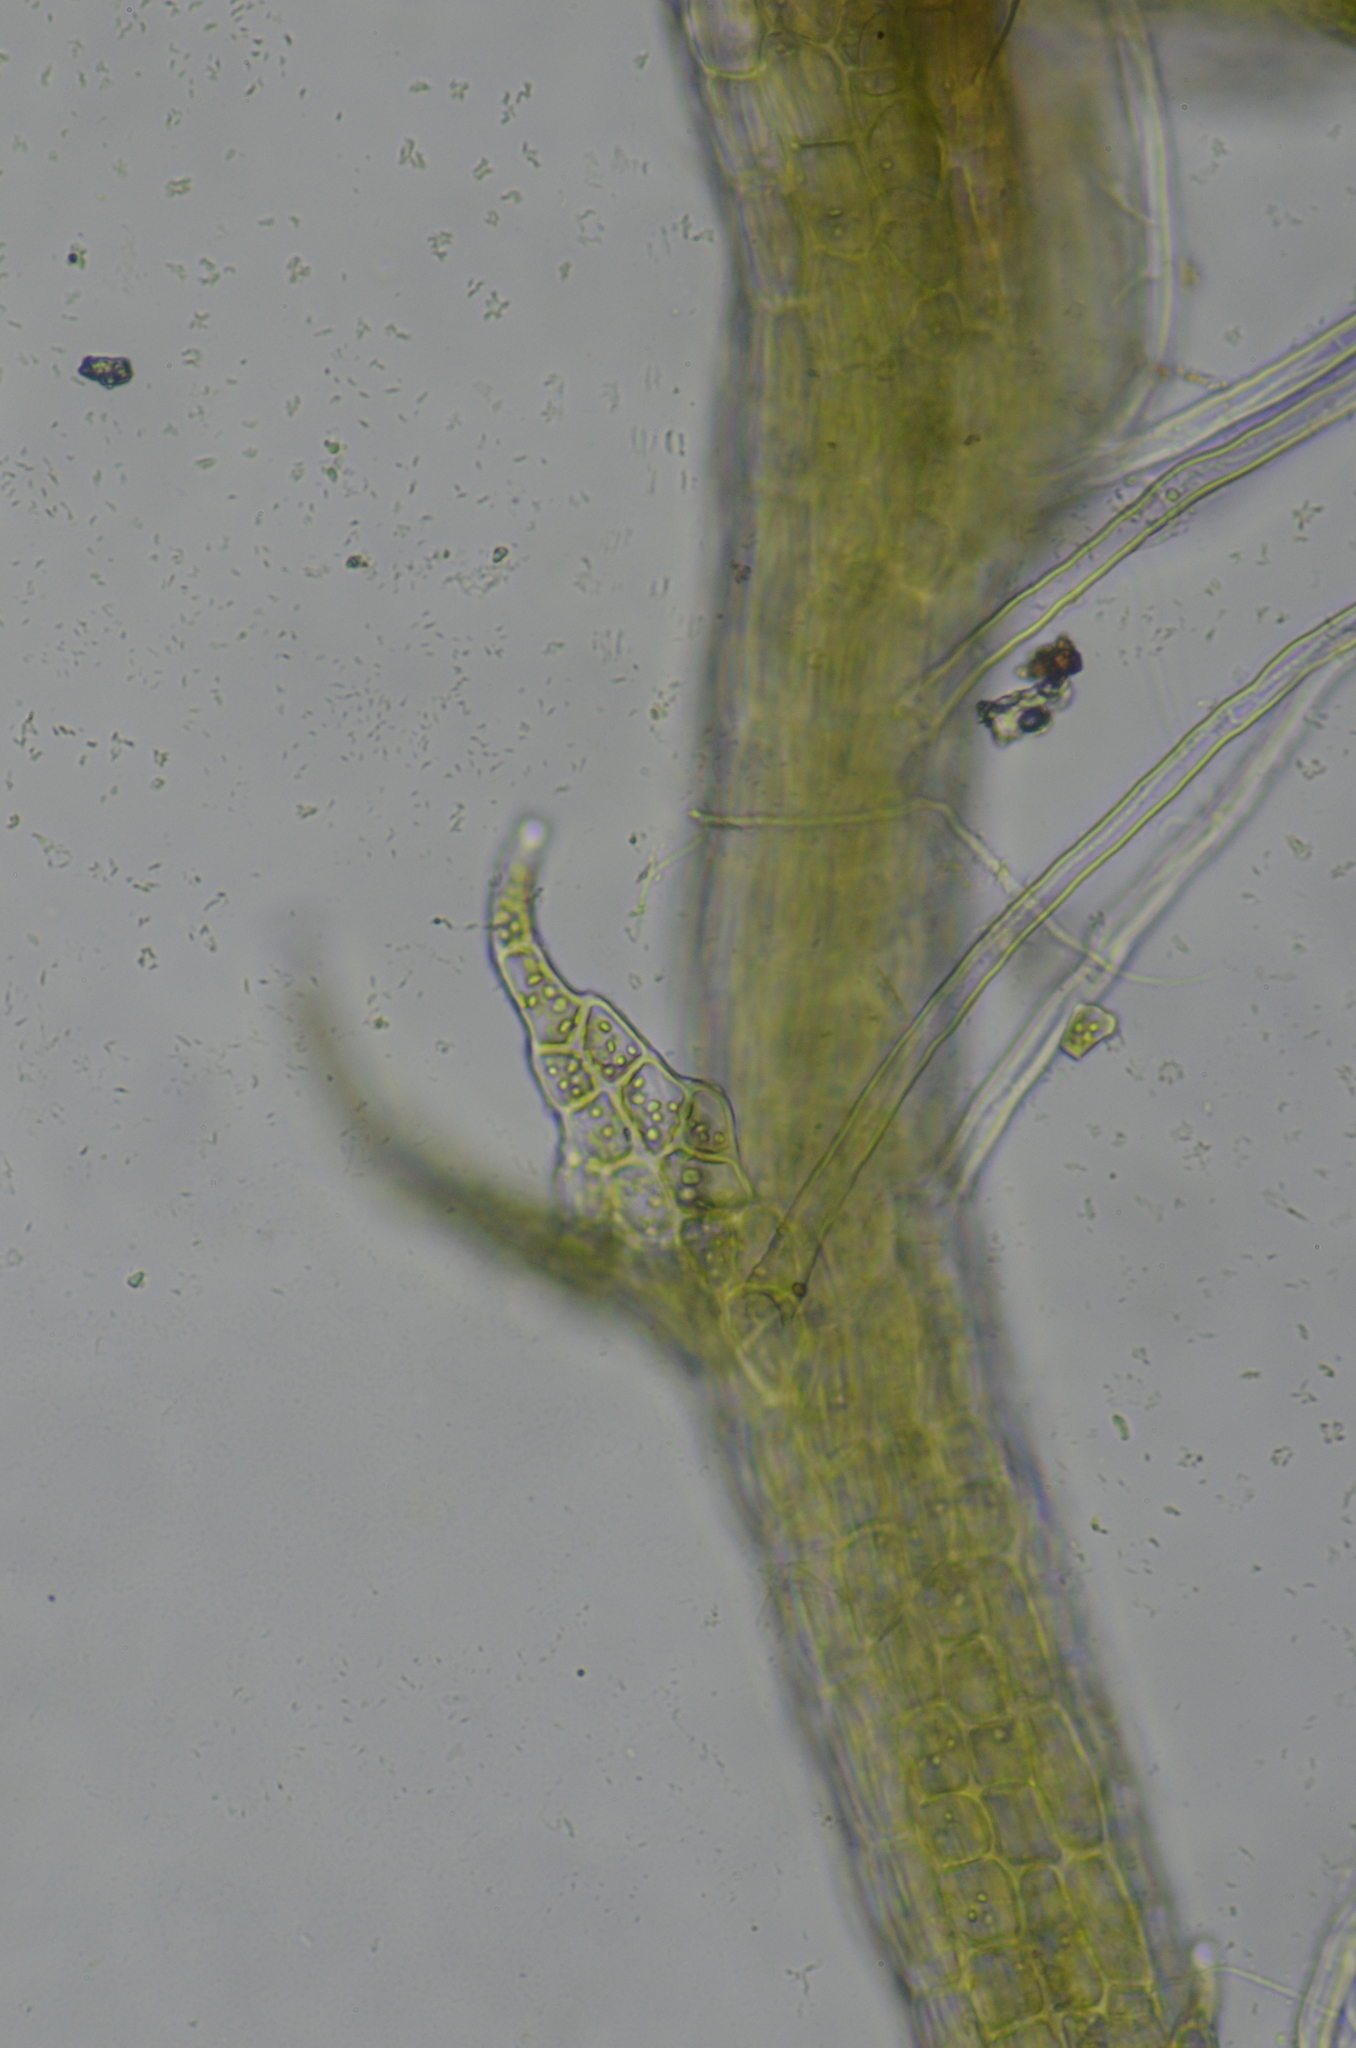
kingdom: Plantae
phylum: Marchantiophyta
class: Jungermanniopsida
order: Jungermanniales
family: Cephaloziellaceae
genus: Cephaloziella
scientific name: Cephaloziella spinigera
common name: Spiny threadwort
